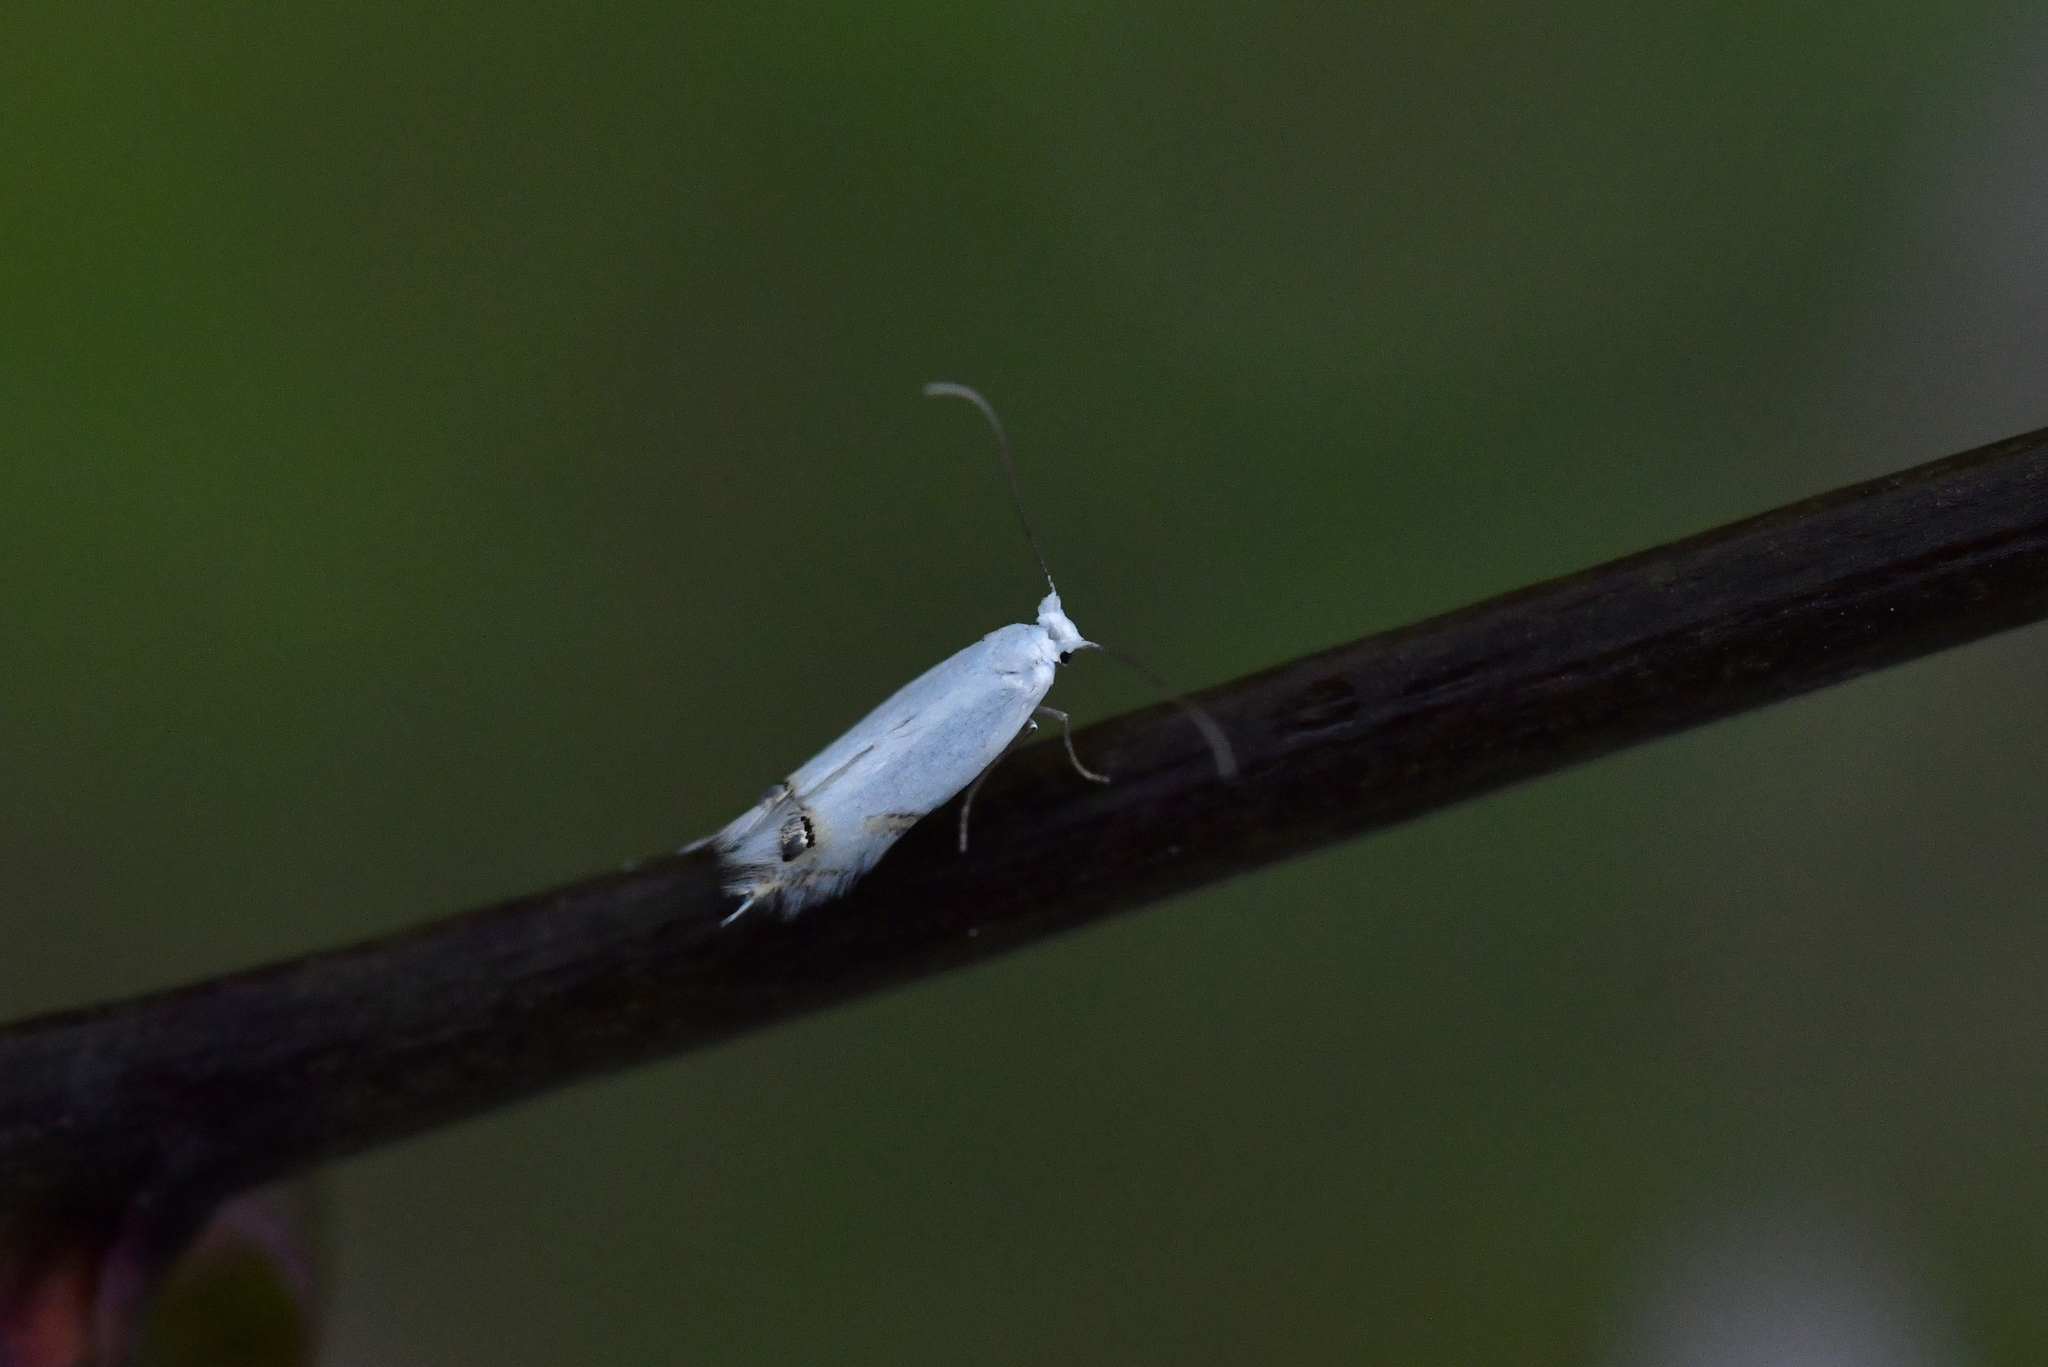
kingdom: Animalia
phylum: Arthropoda
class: Insecta
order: Lepidoptera
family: Lyonetiidae
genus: Leucoptera
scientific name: Leucoptera spartifoliella
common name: Scotch broom twig miner
